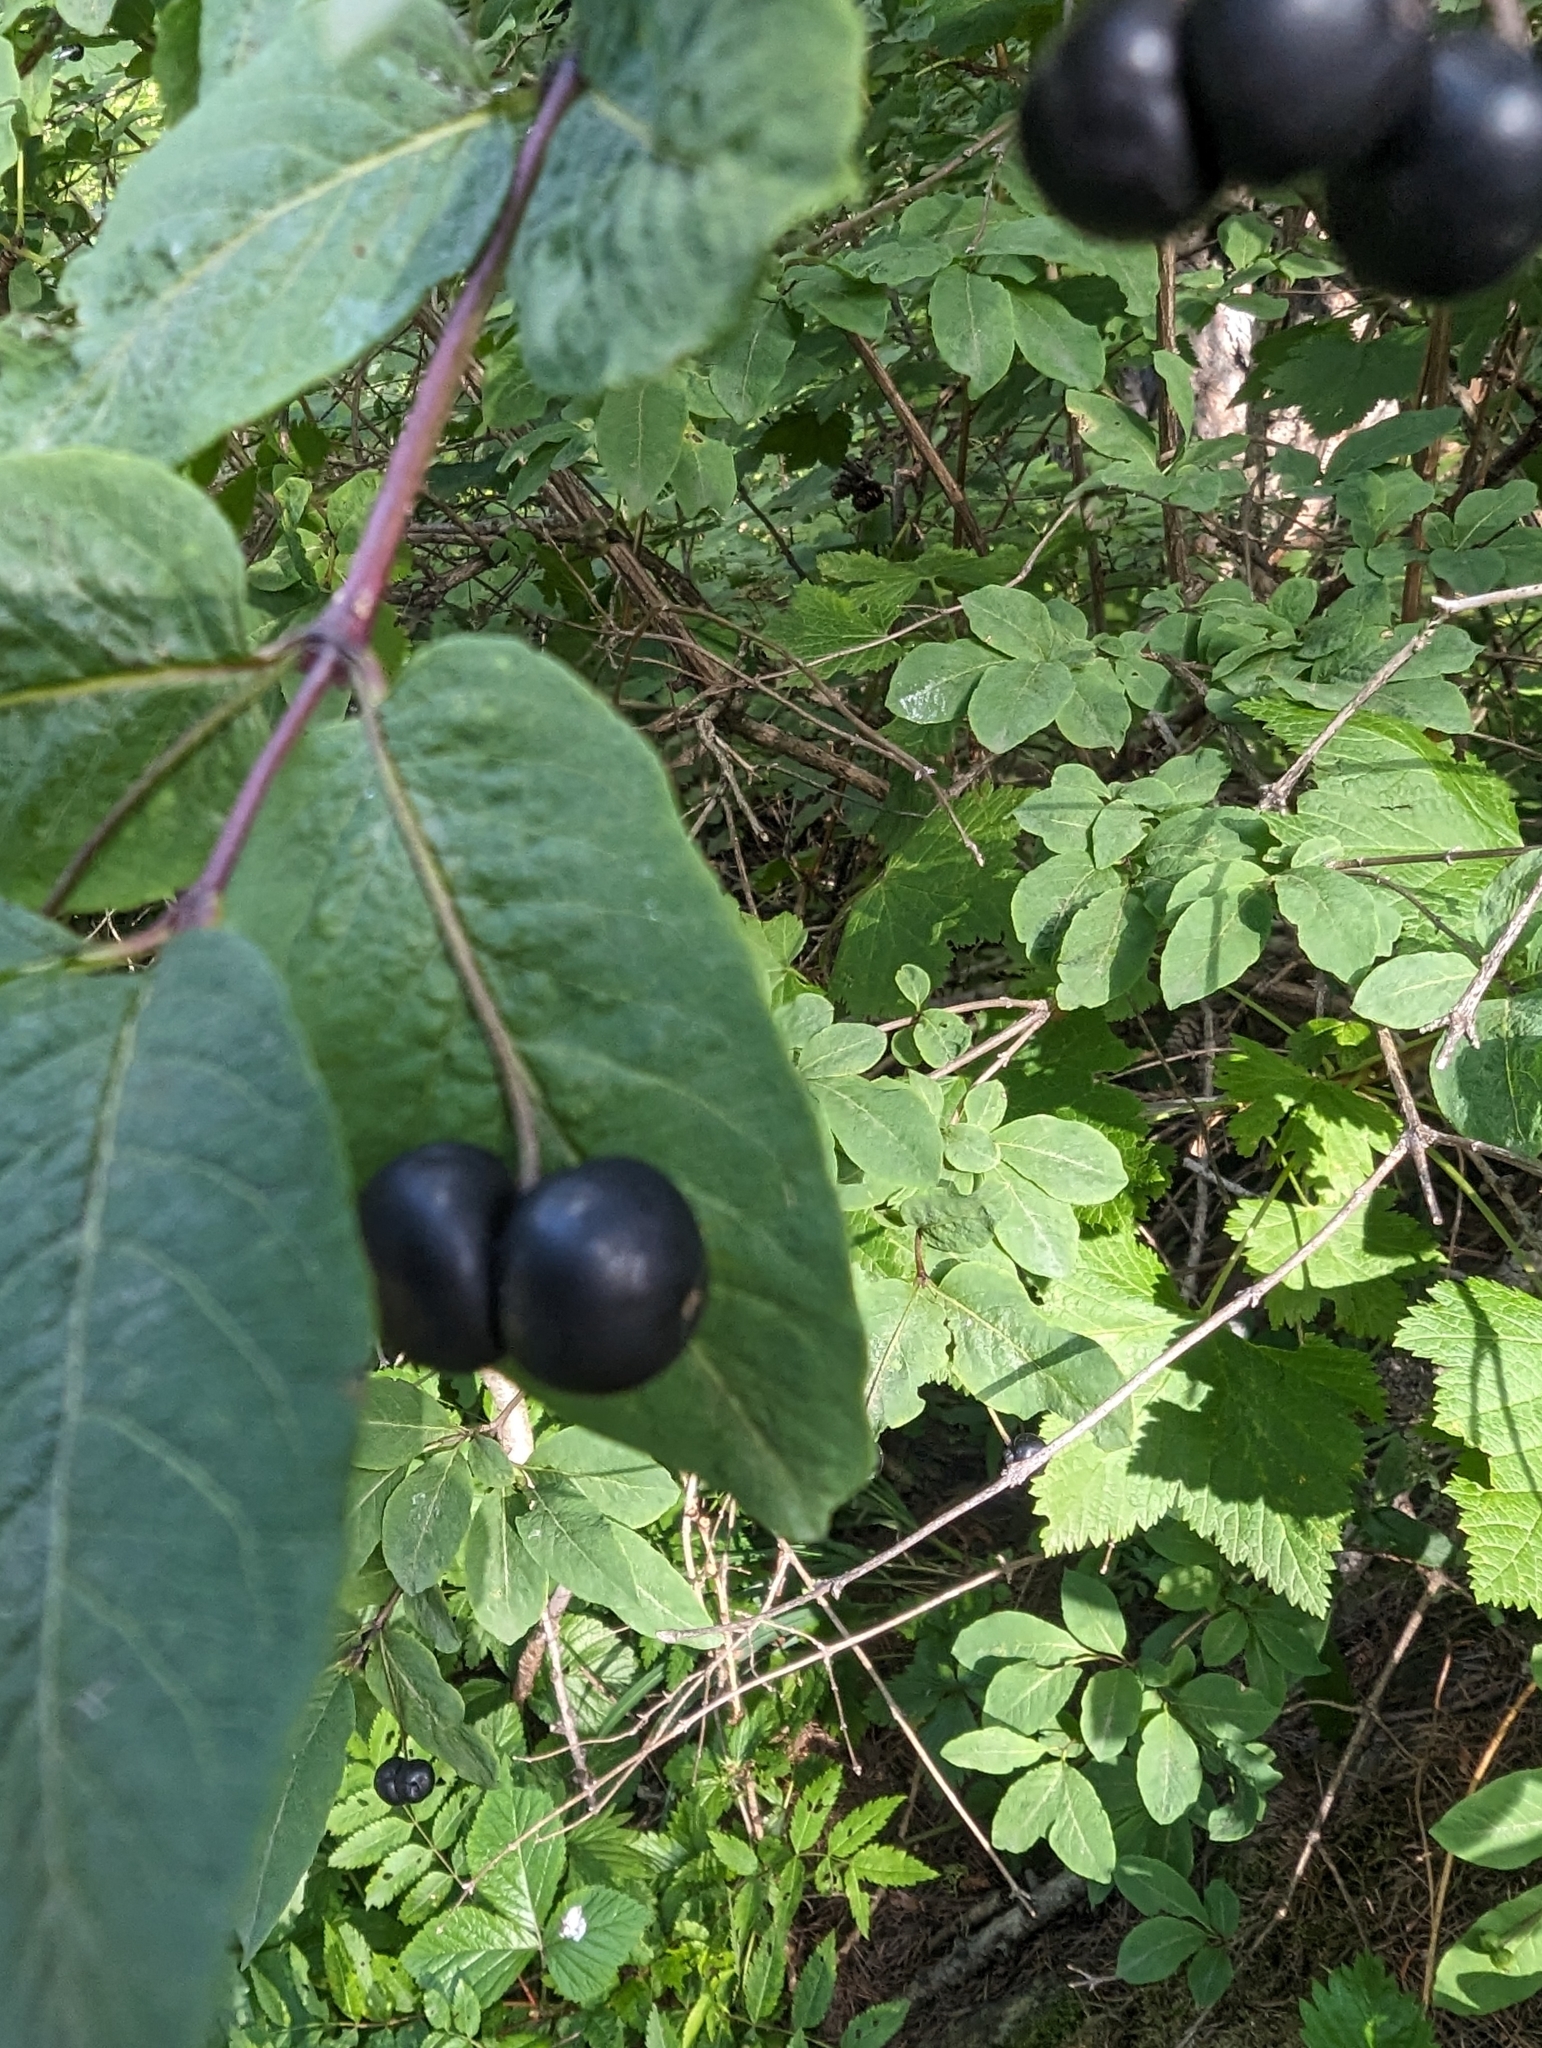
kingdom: Plantae
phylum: Tracheophyta
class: Magnoliopsida
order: Dipsacales
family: Caprifoliaceae
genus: Lonicera
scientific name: Lonicera nigra
